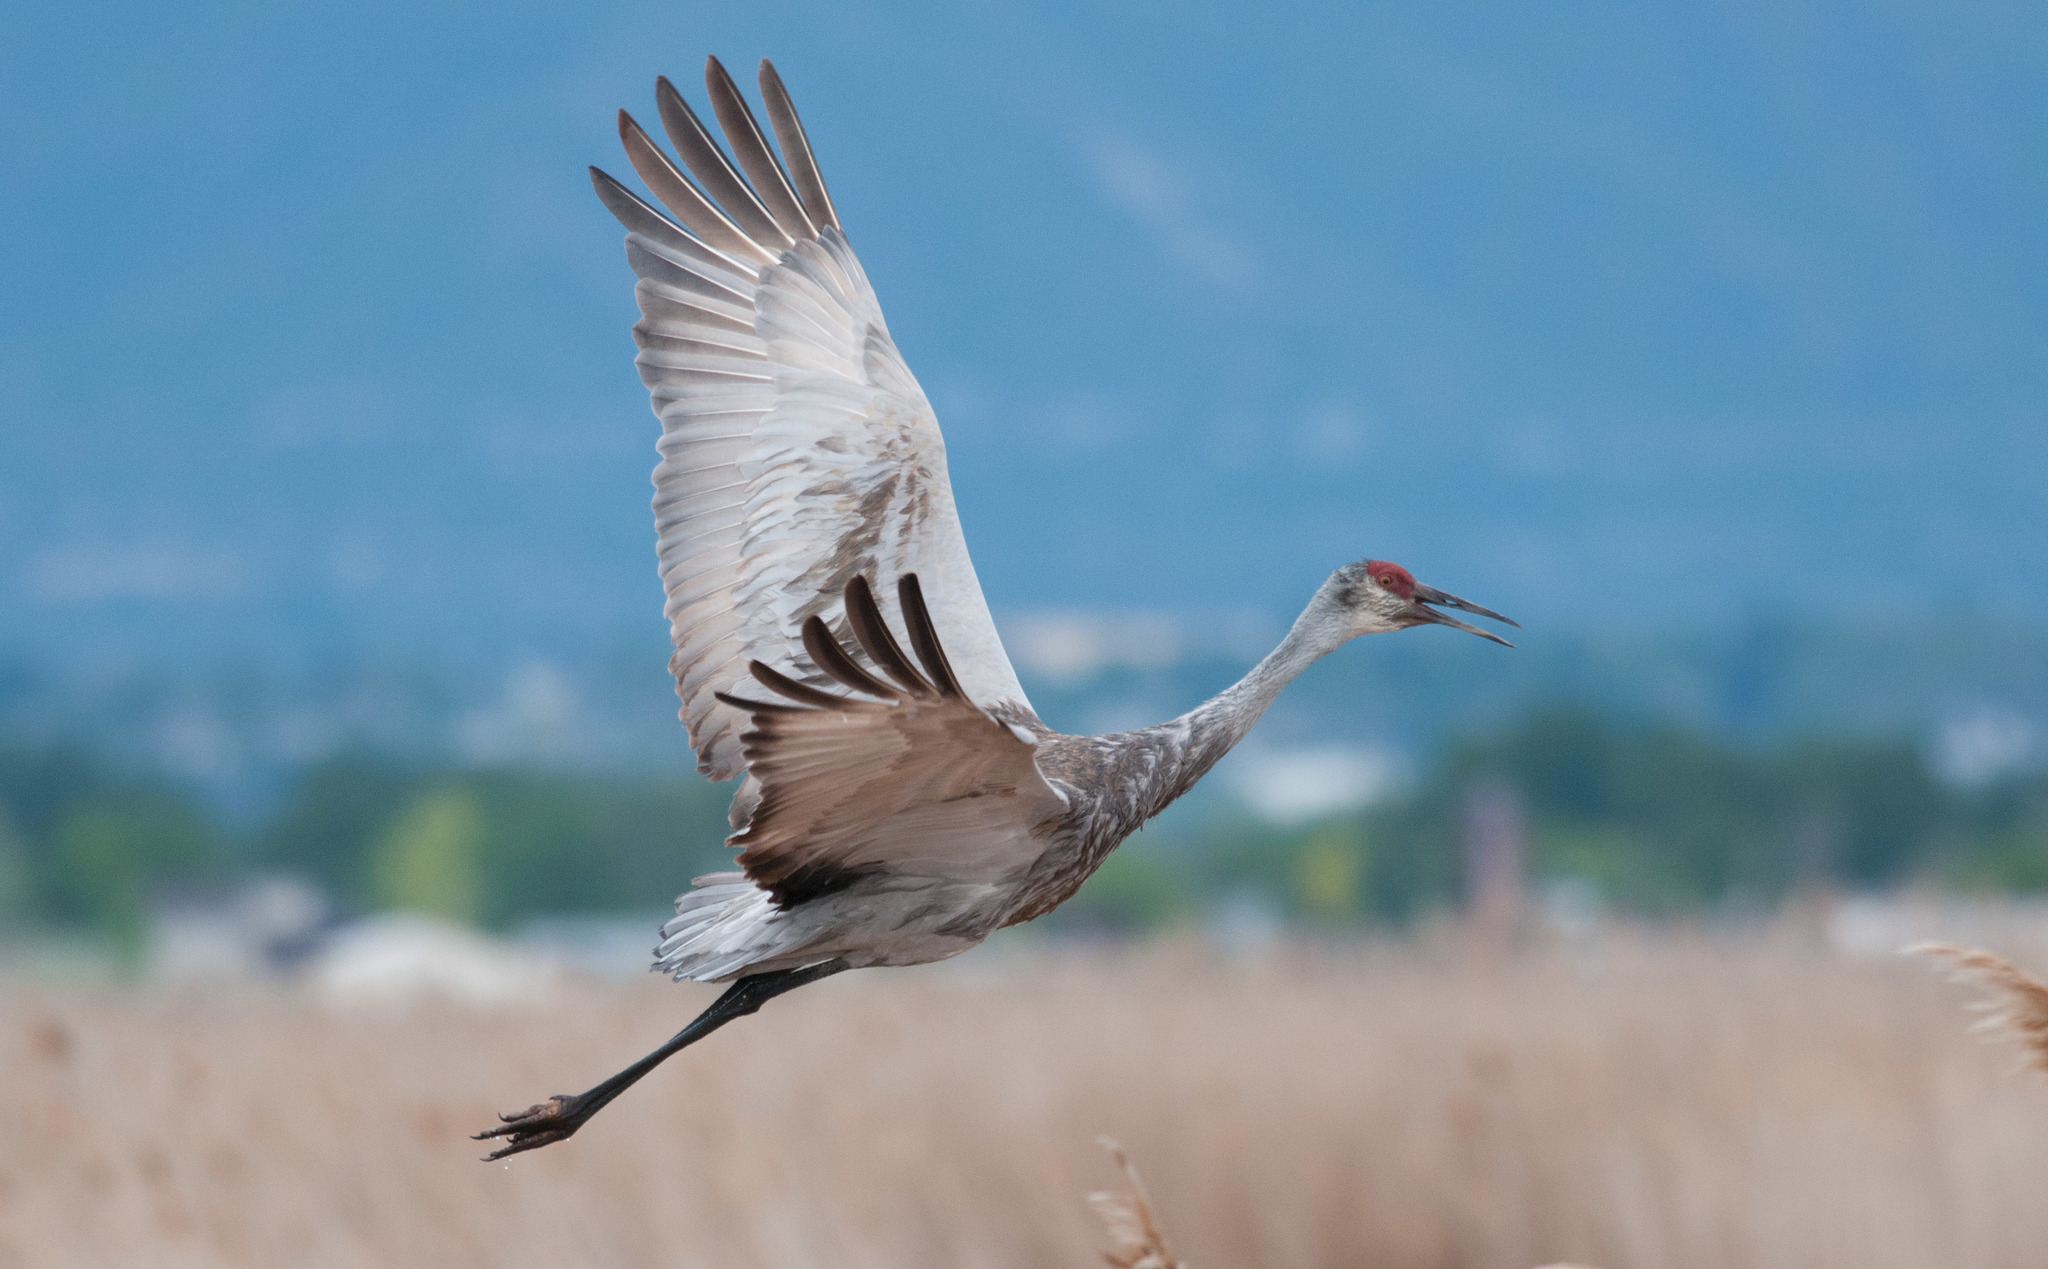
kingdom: Animalia
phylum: Chordata
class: Aves
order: Gruiformes
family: Gruidae
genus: Grus
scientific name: Grus canadensis
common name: Sandhill crane
